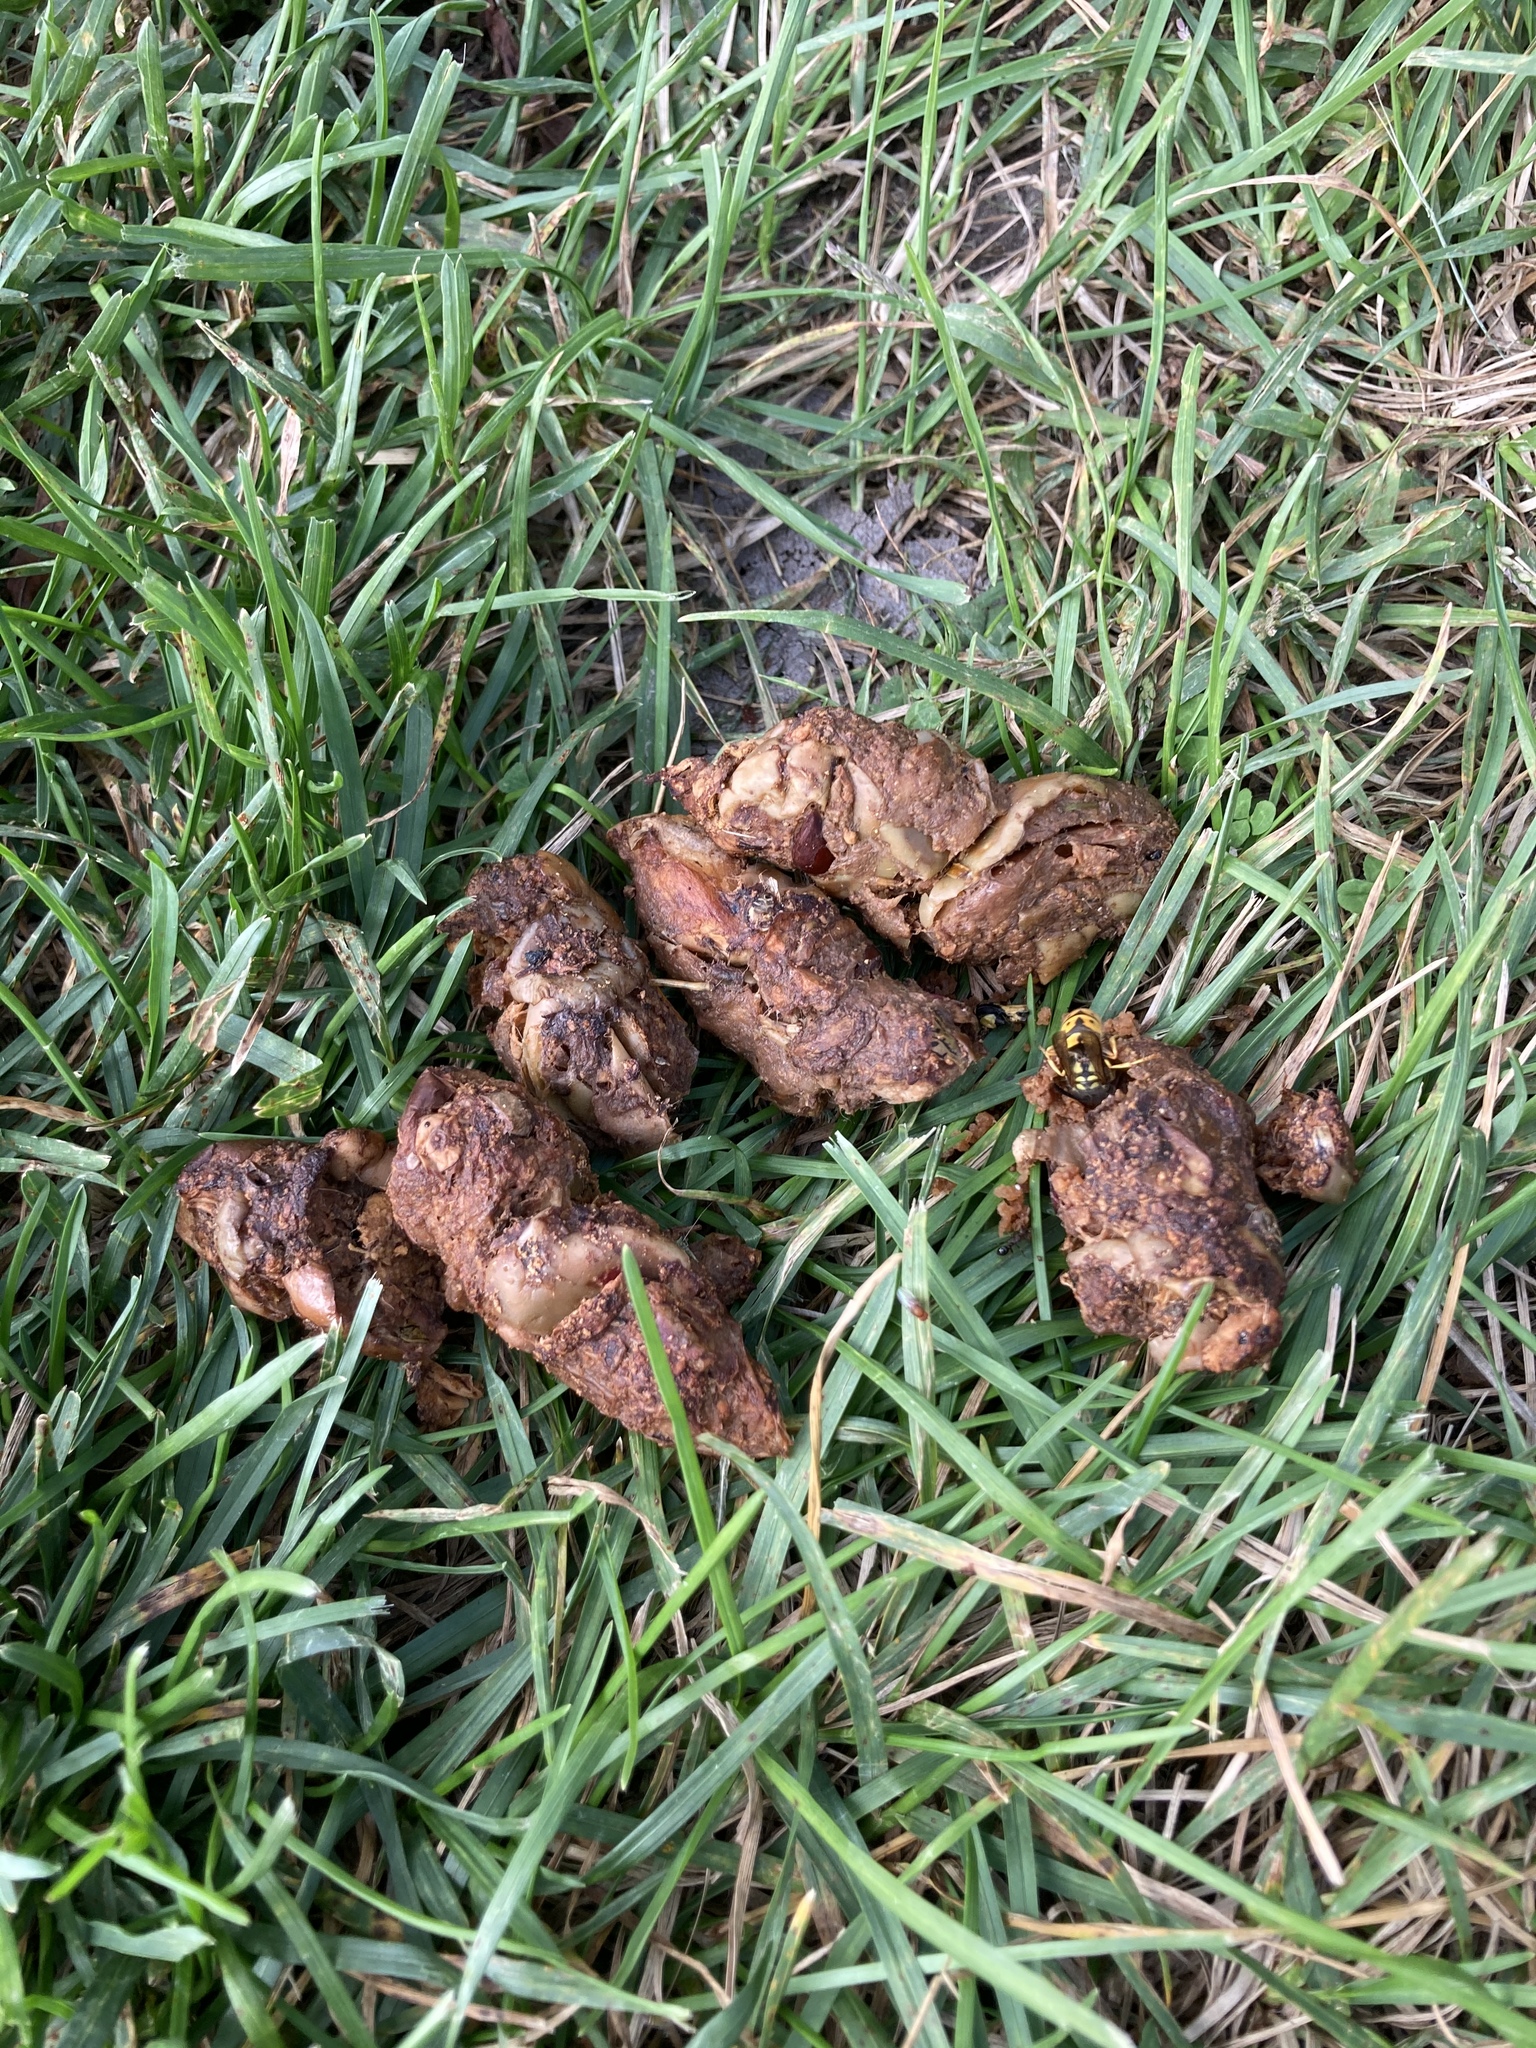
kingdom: Animalia
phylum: Chordata
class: Mammalia
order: Carnivora
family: Canidae
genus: Canis
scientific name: Canis latrans
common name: Coyote
